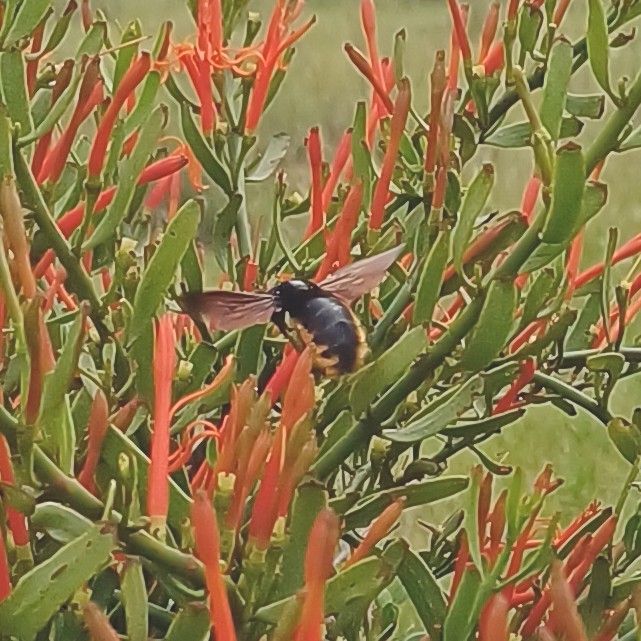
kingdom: Animalia
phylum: Arthropoda
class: Insecta
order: Hymenoptera
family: Apidae
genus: Xylocopa
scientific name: Xylocopa augusti
